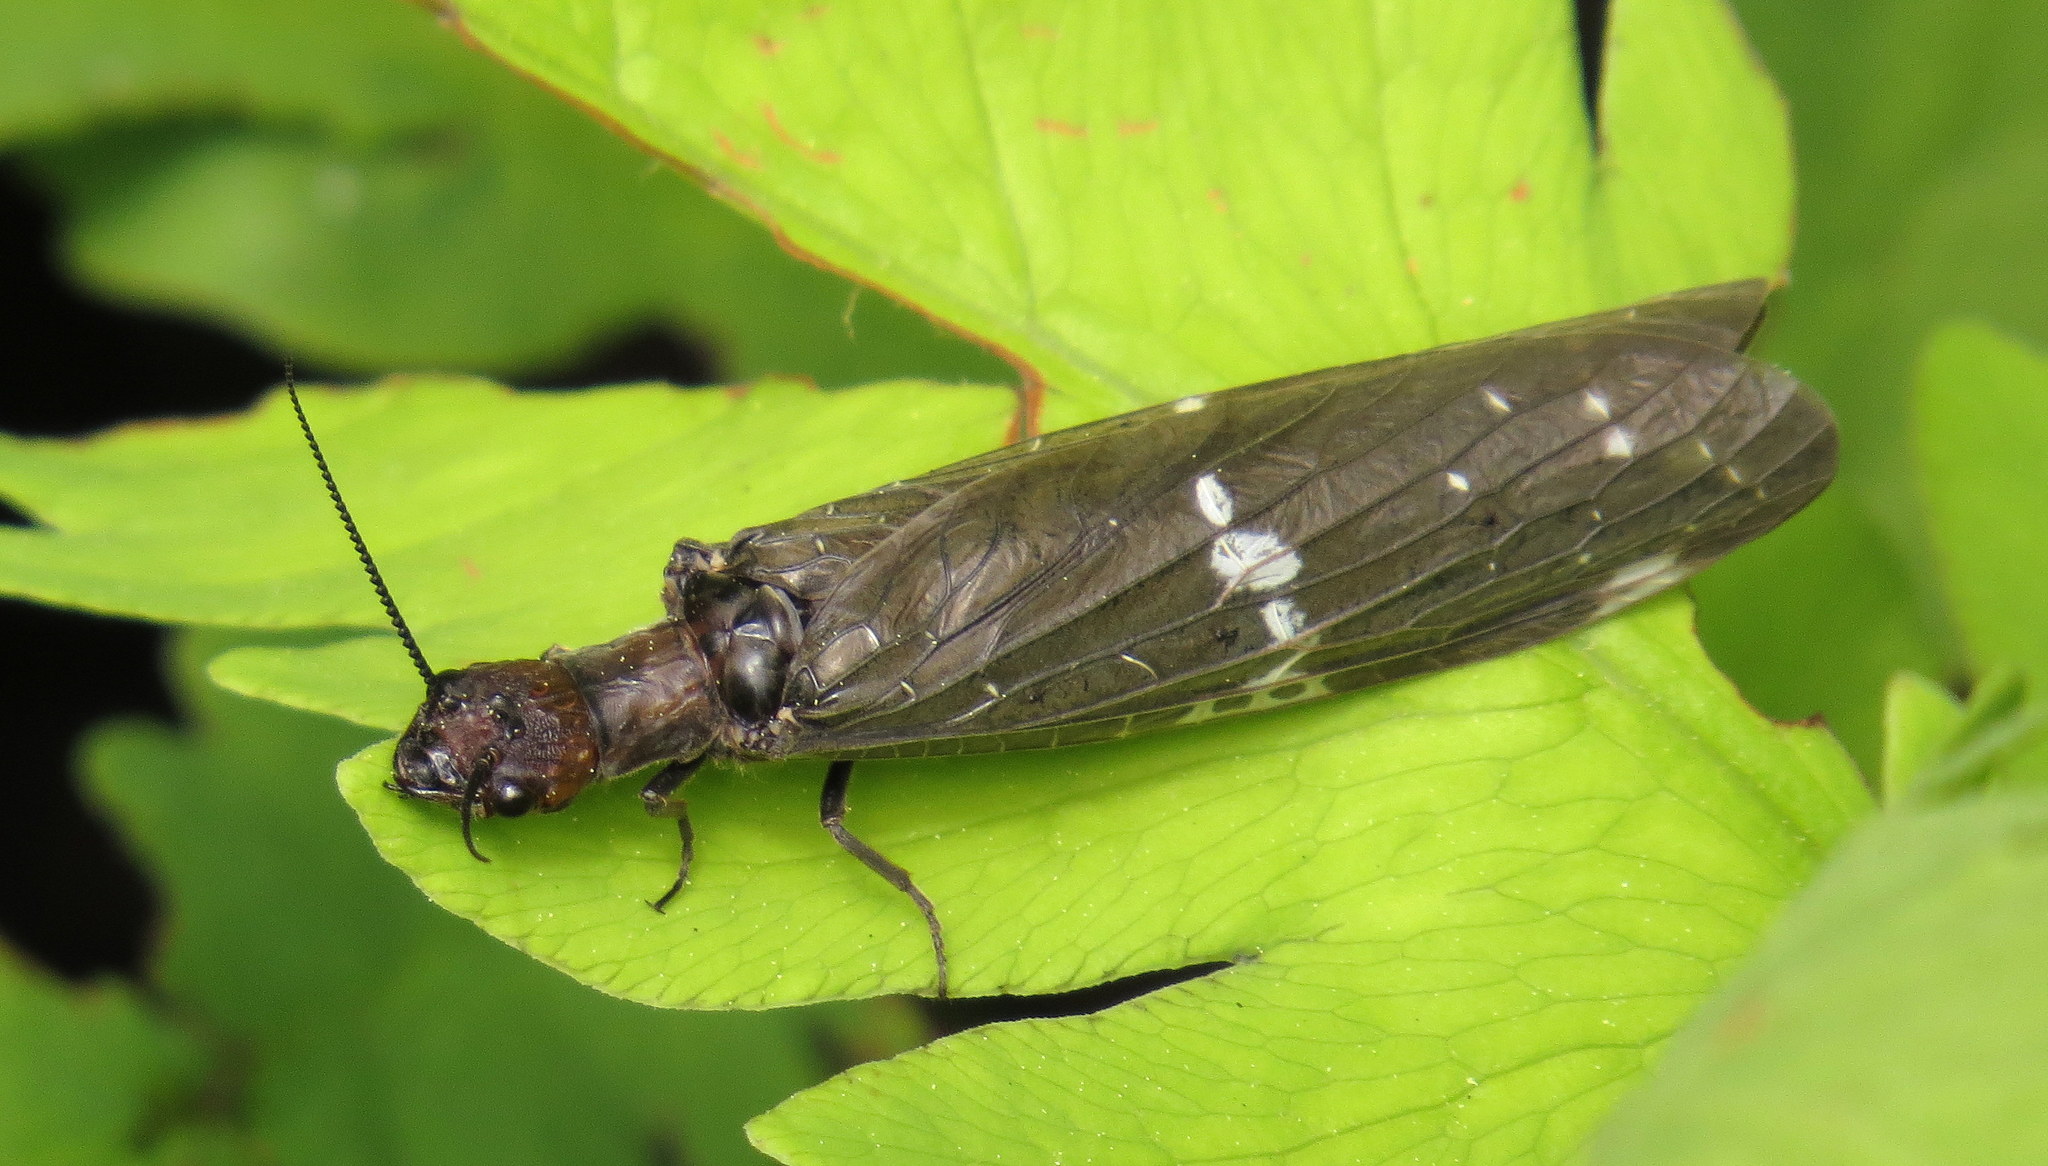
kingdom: Animalia
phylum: Arthropoda
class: Insecta
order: Megaloptera
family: Corydalidae
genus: Nigronia
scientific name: Nigronia serricornis
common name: Serrate dark fishfly
